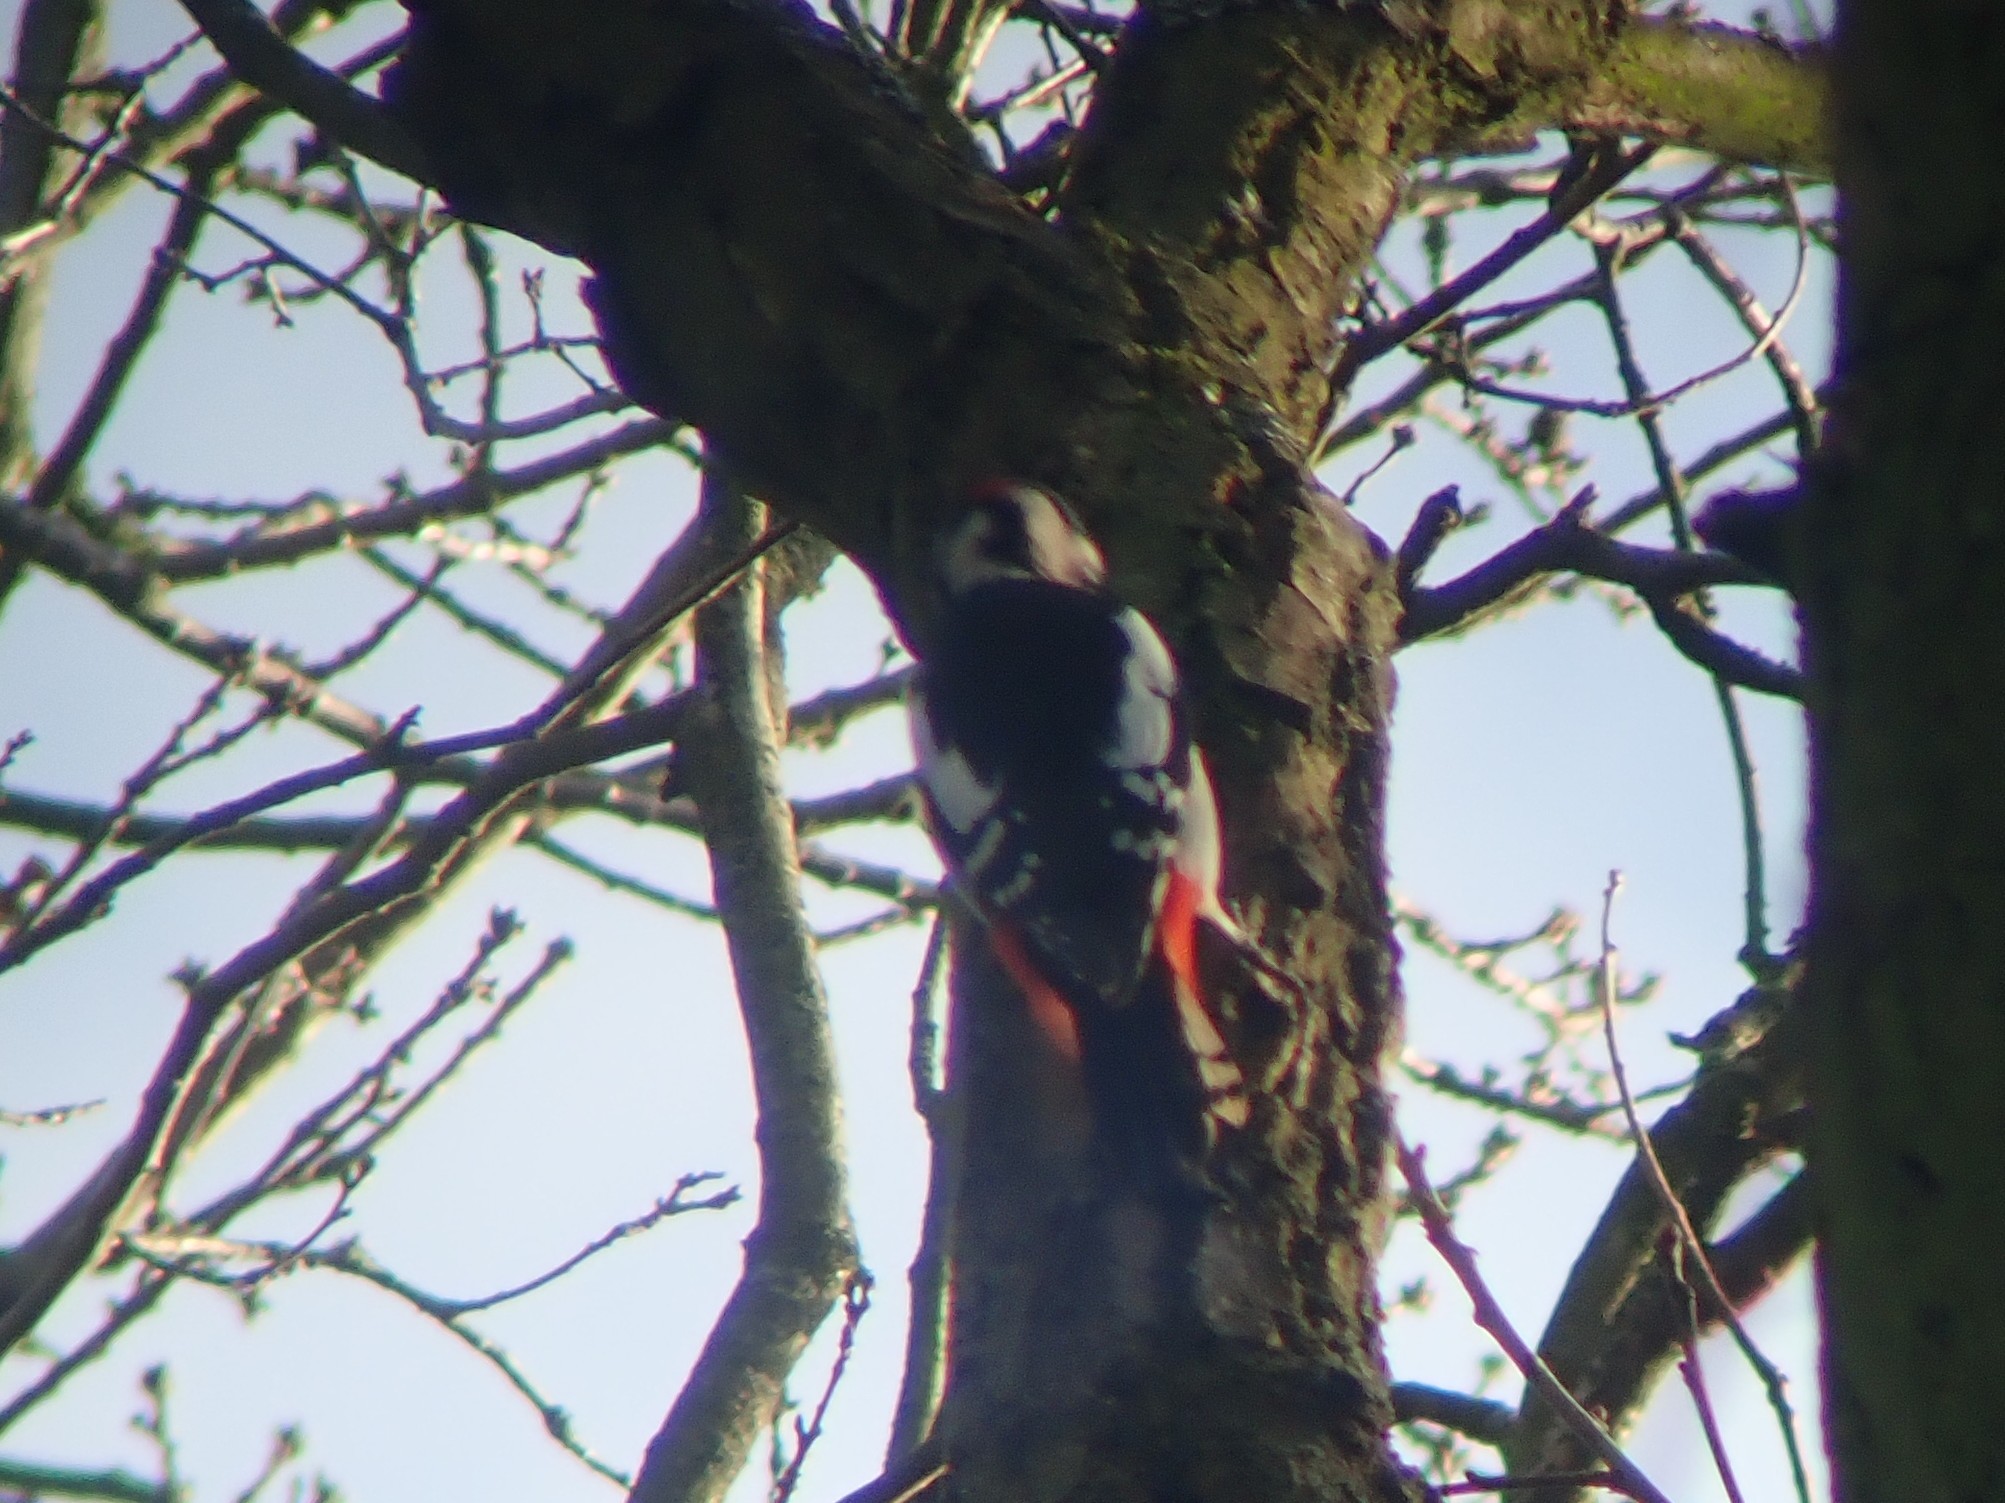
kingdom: Animalia
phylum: Chordata
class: Aves
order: Piciformes
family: Picidae
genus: Dendrocopos
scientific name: Dendrocopos major
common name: Great spotted woodpecker
